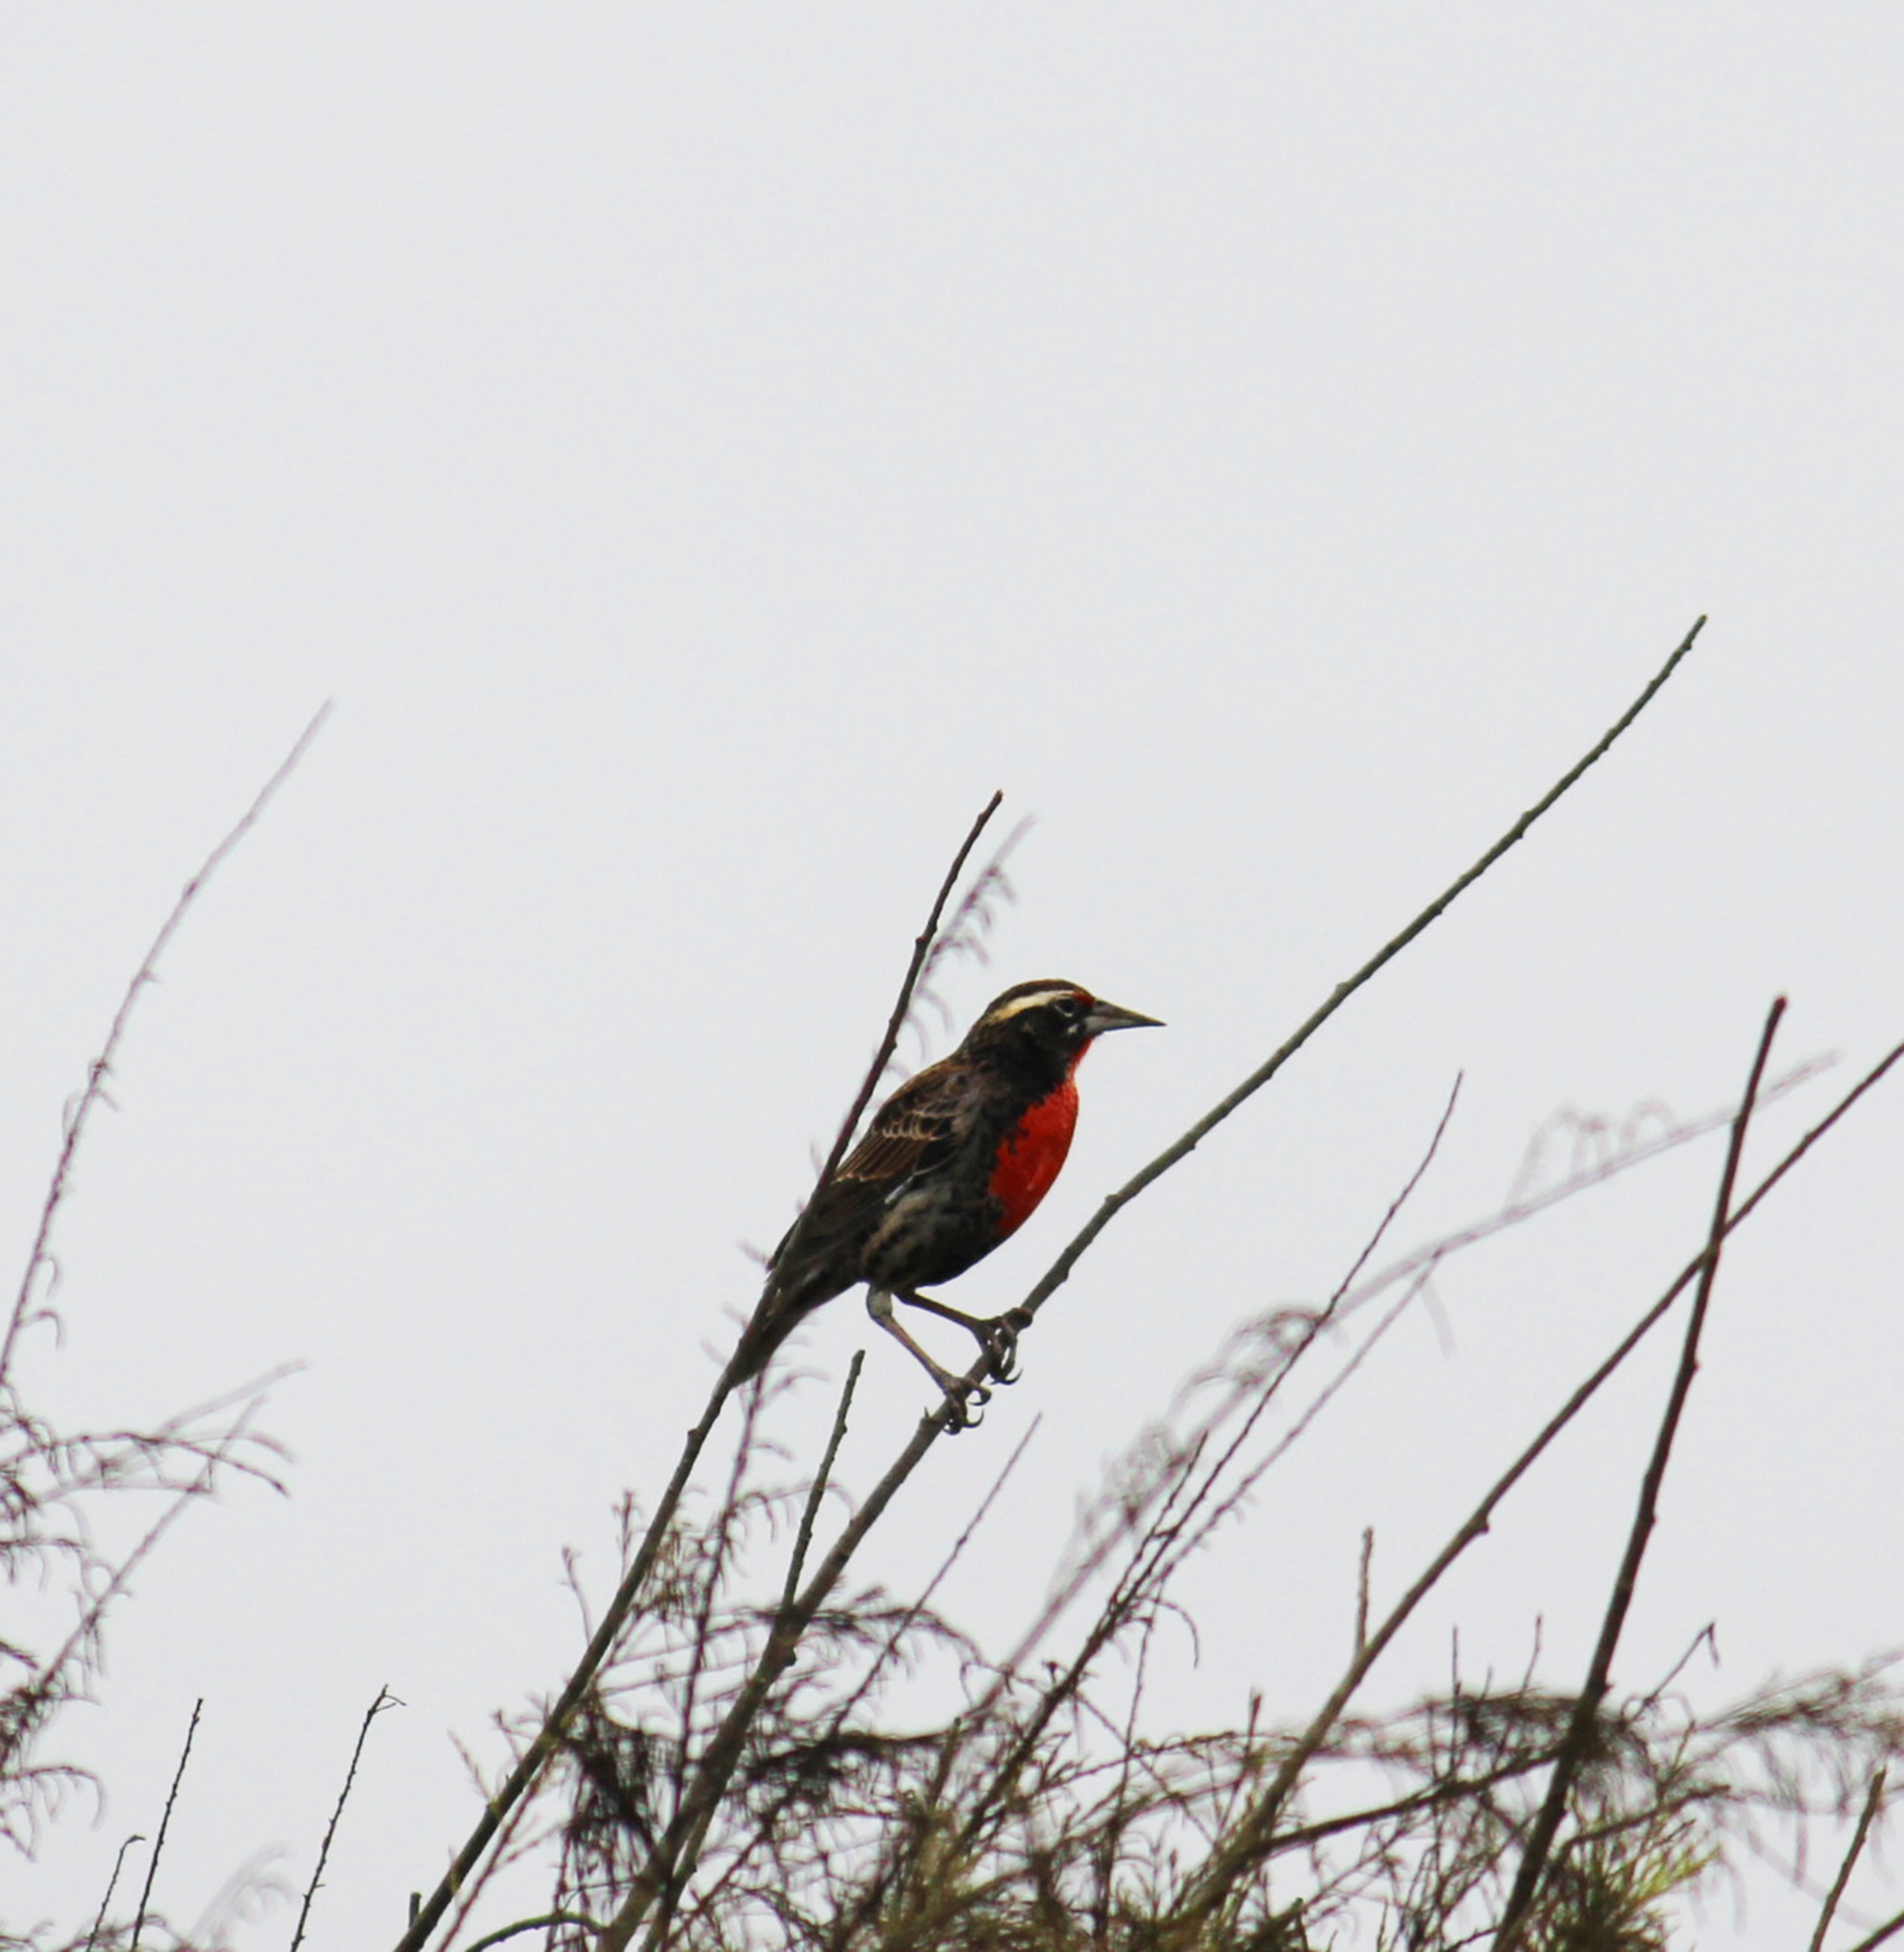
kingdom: Animalia
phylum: Chordata
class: Aves
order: Passeriformes
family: Icteridae
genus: Sturnella
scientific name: Sturnella bellicosa
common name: Peruvian meadowlark
